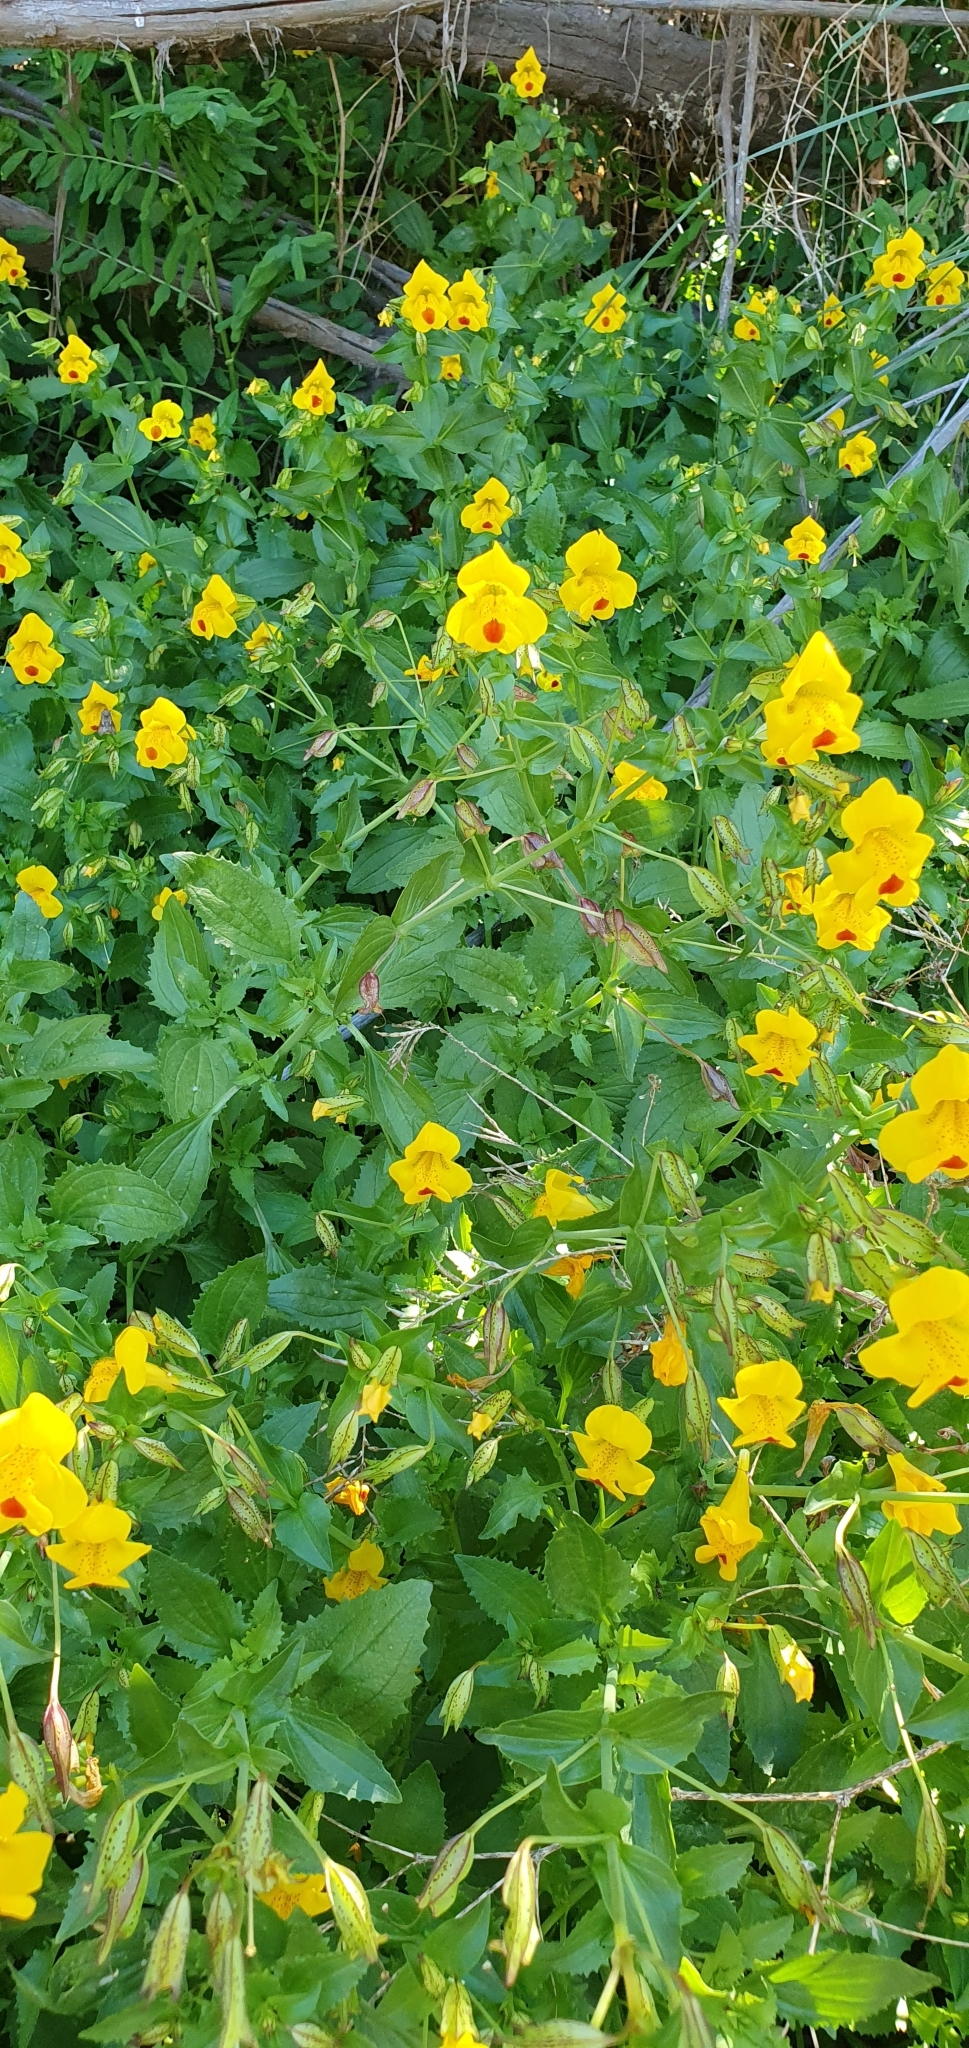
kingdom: Plantae
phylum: Tracheophyta
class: Magnoliopsida
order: Lamiales
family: Phrymaceae
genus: Erythranthe
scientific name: Erythranthe lutea
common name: Yellow monkey-flower
